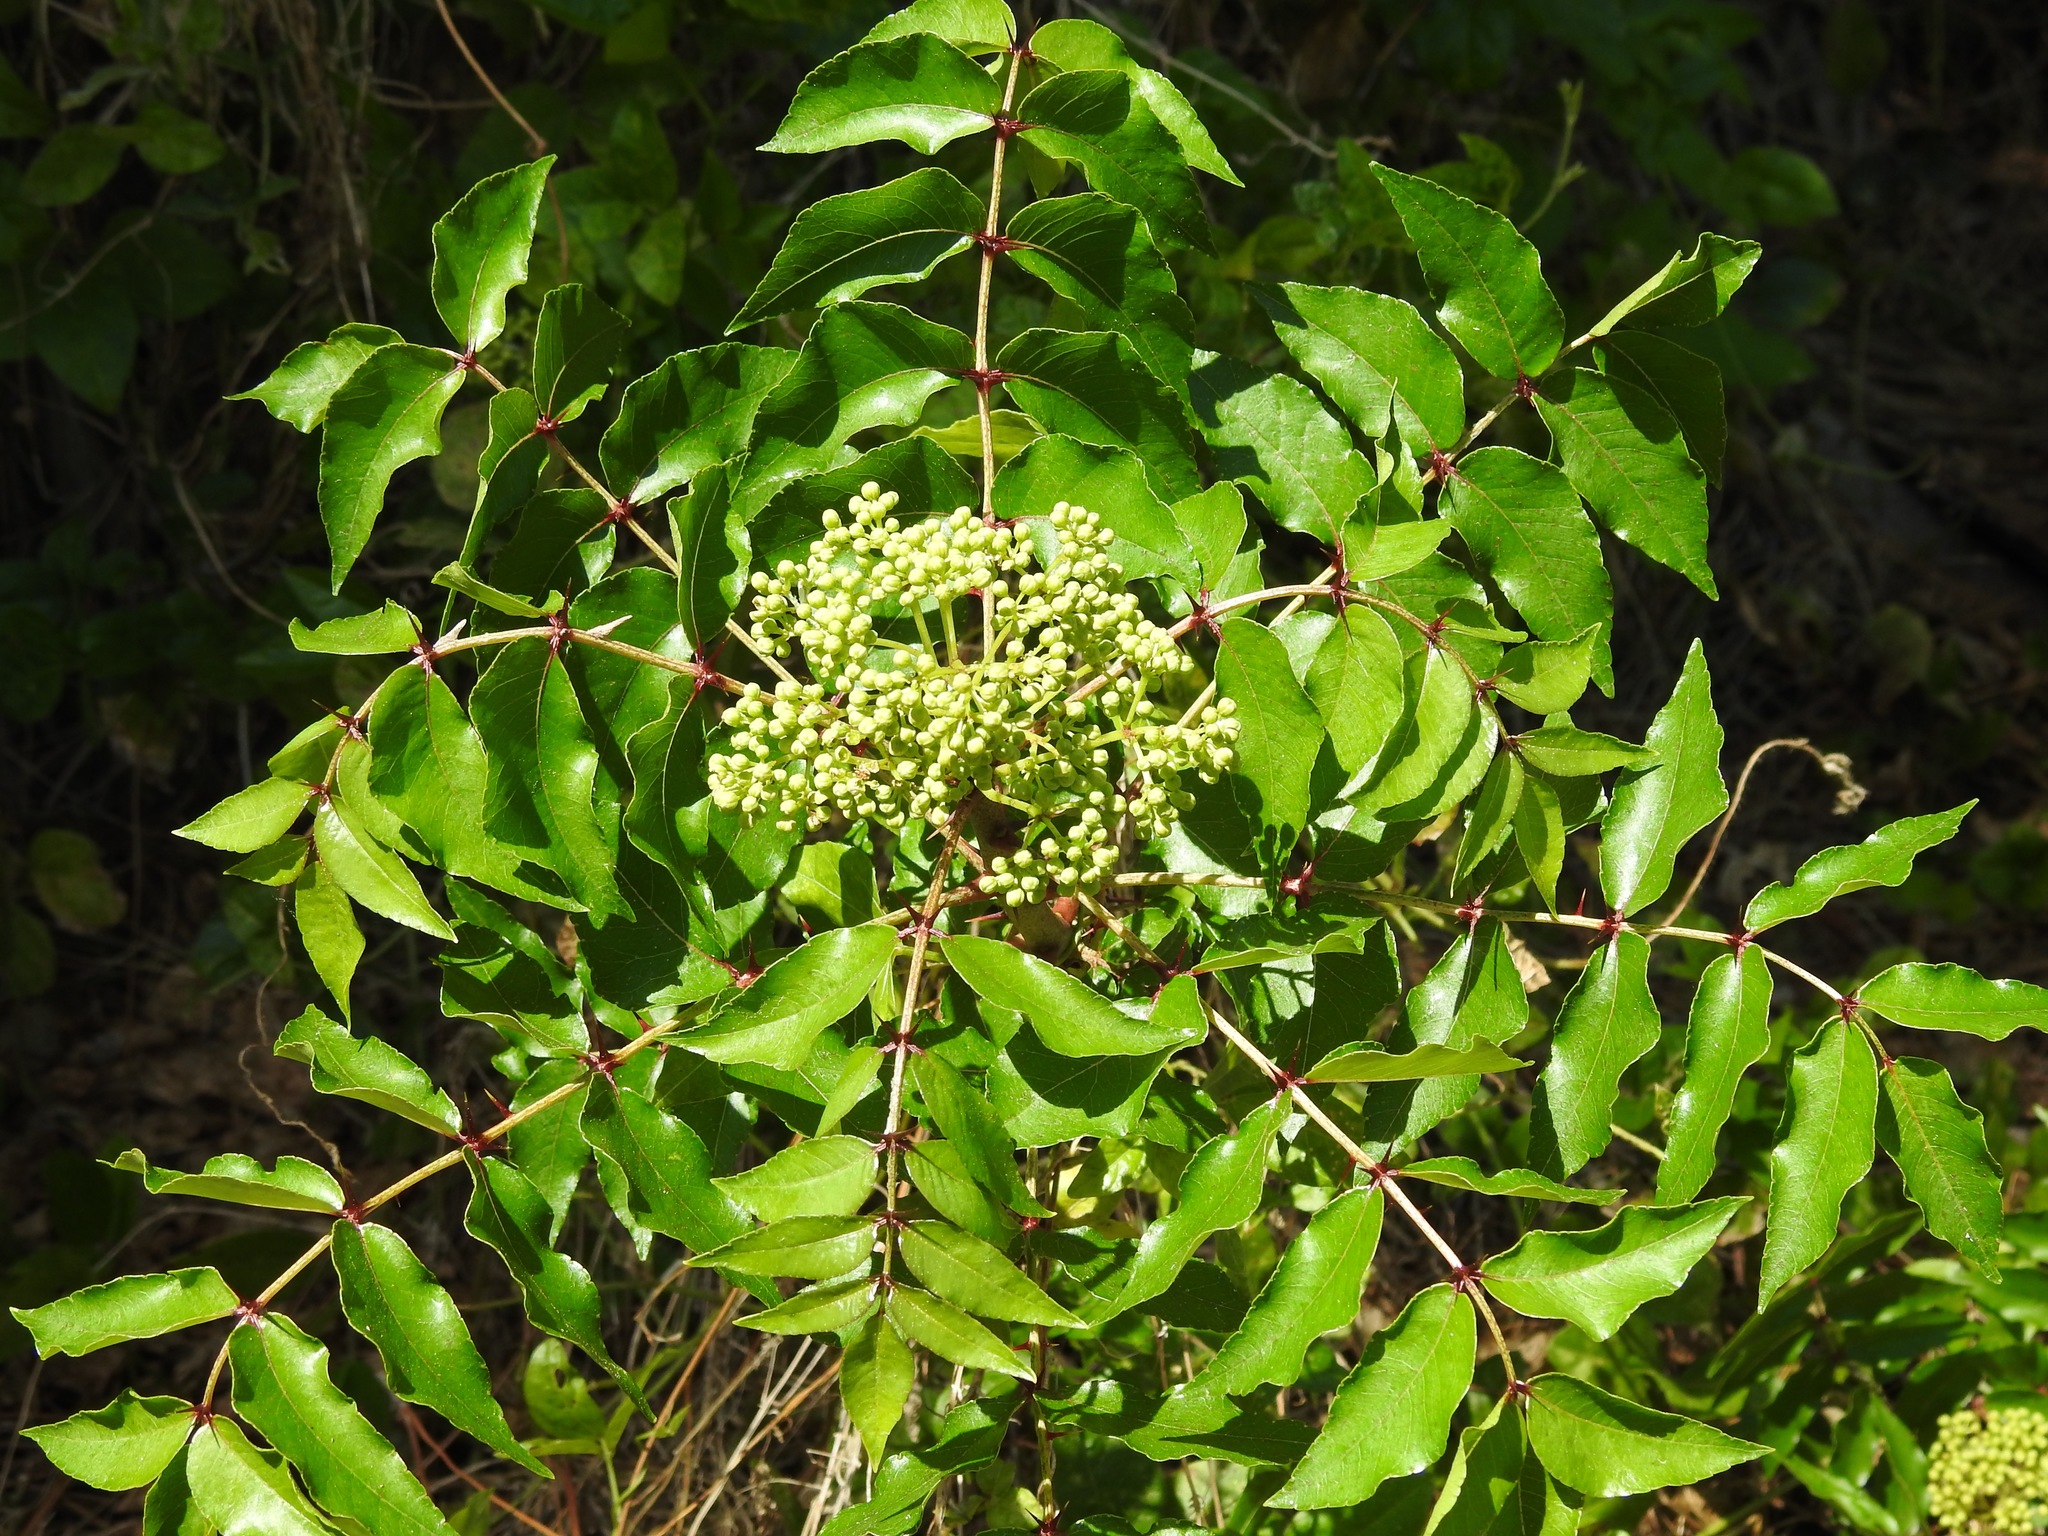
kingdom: Plantae
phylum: Tracheophyta
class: Magnoliopsida
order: Sapindales
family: Rutaceae
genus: Zanthoxylum
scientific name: Zanthoxylum clava-herculis
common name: Hercules'-club
